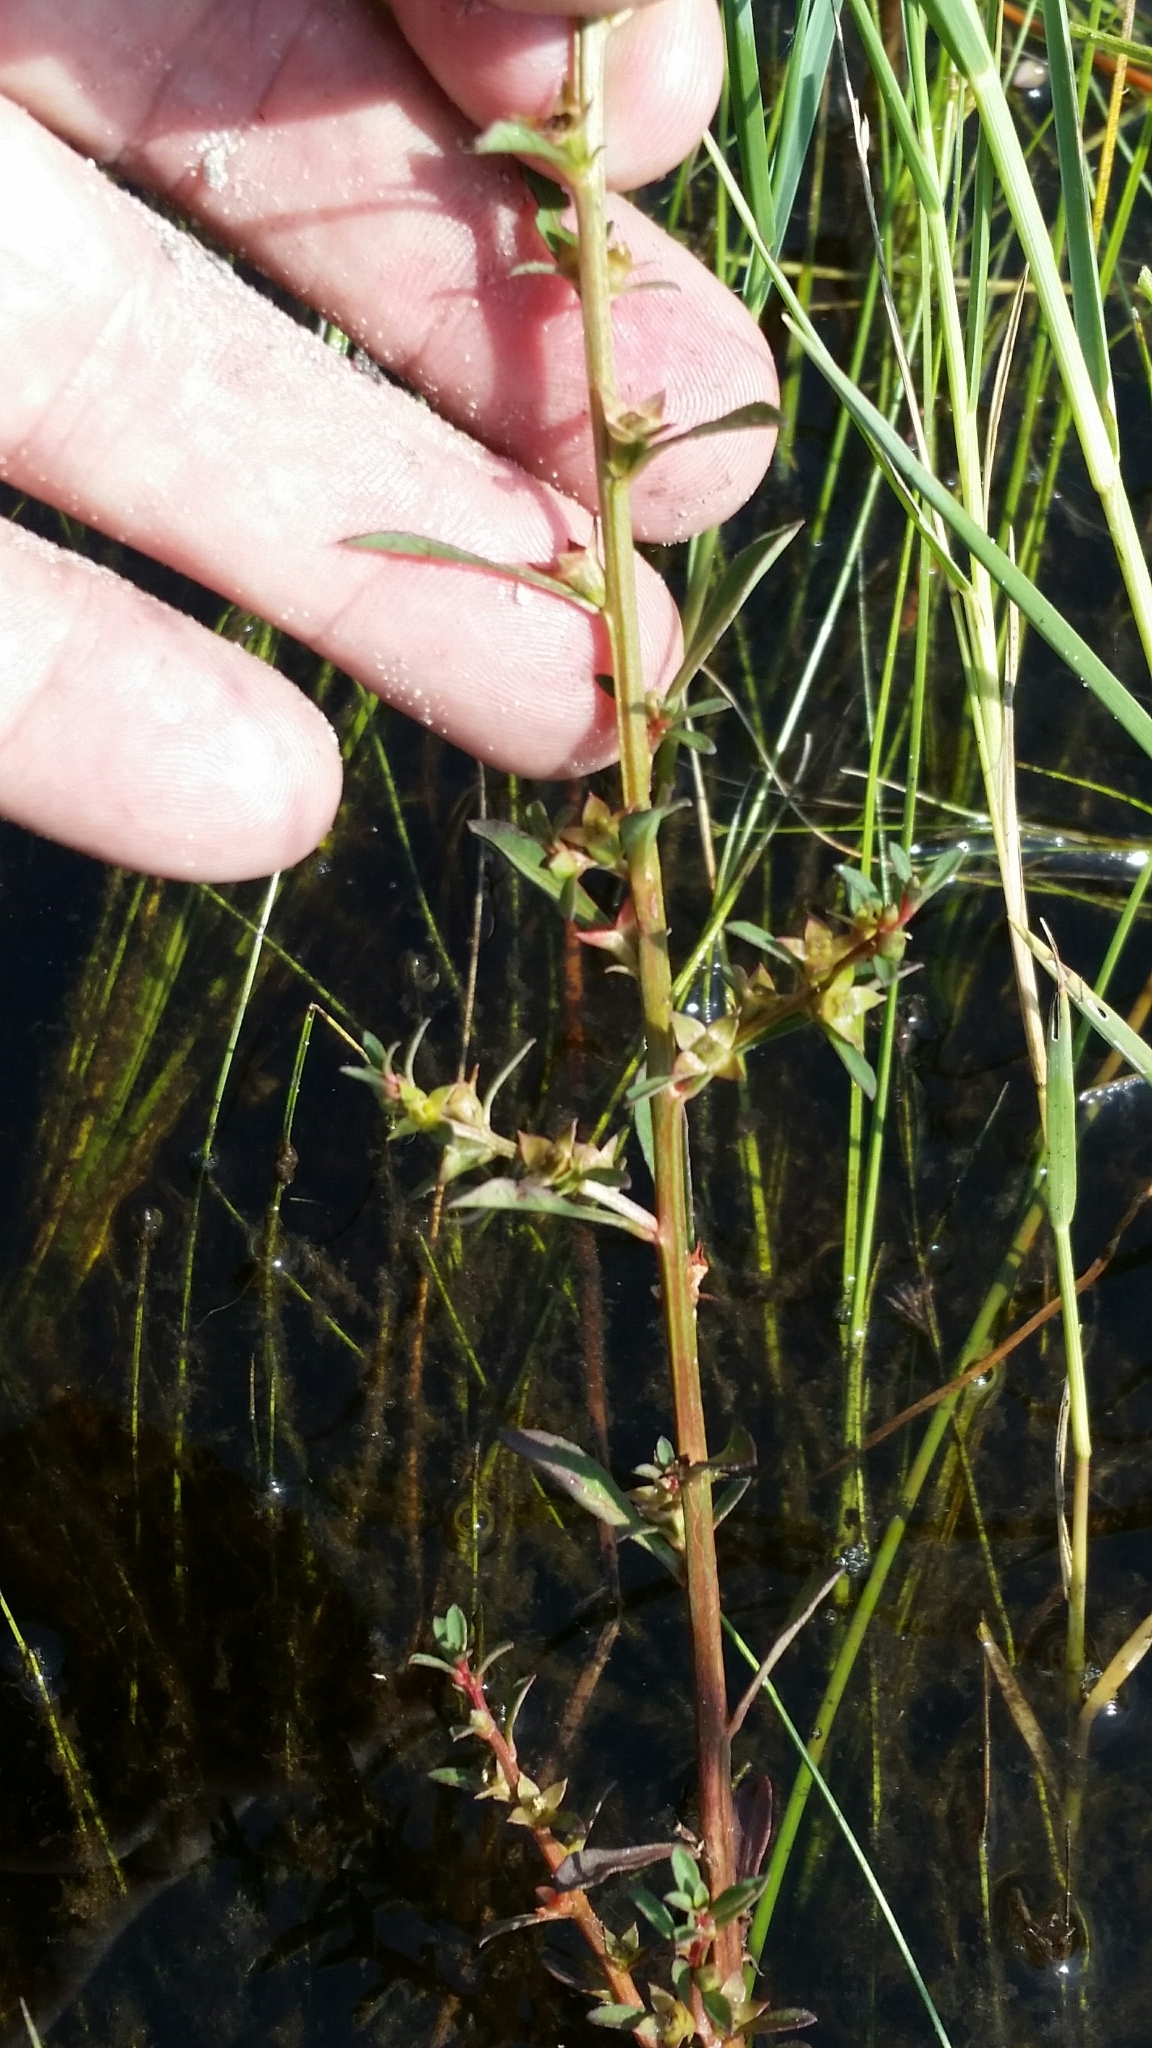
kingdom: Plantae
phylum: Tracheophyta
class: Magnoliopsida
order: Myrtales
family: Onagraceae
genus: Ludwigia
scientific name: Ludwigia curtissii
